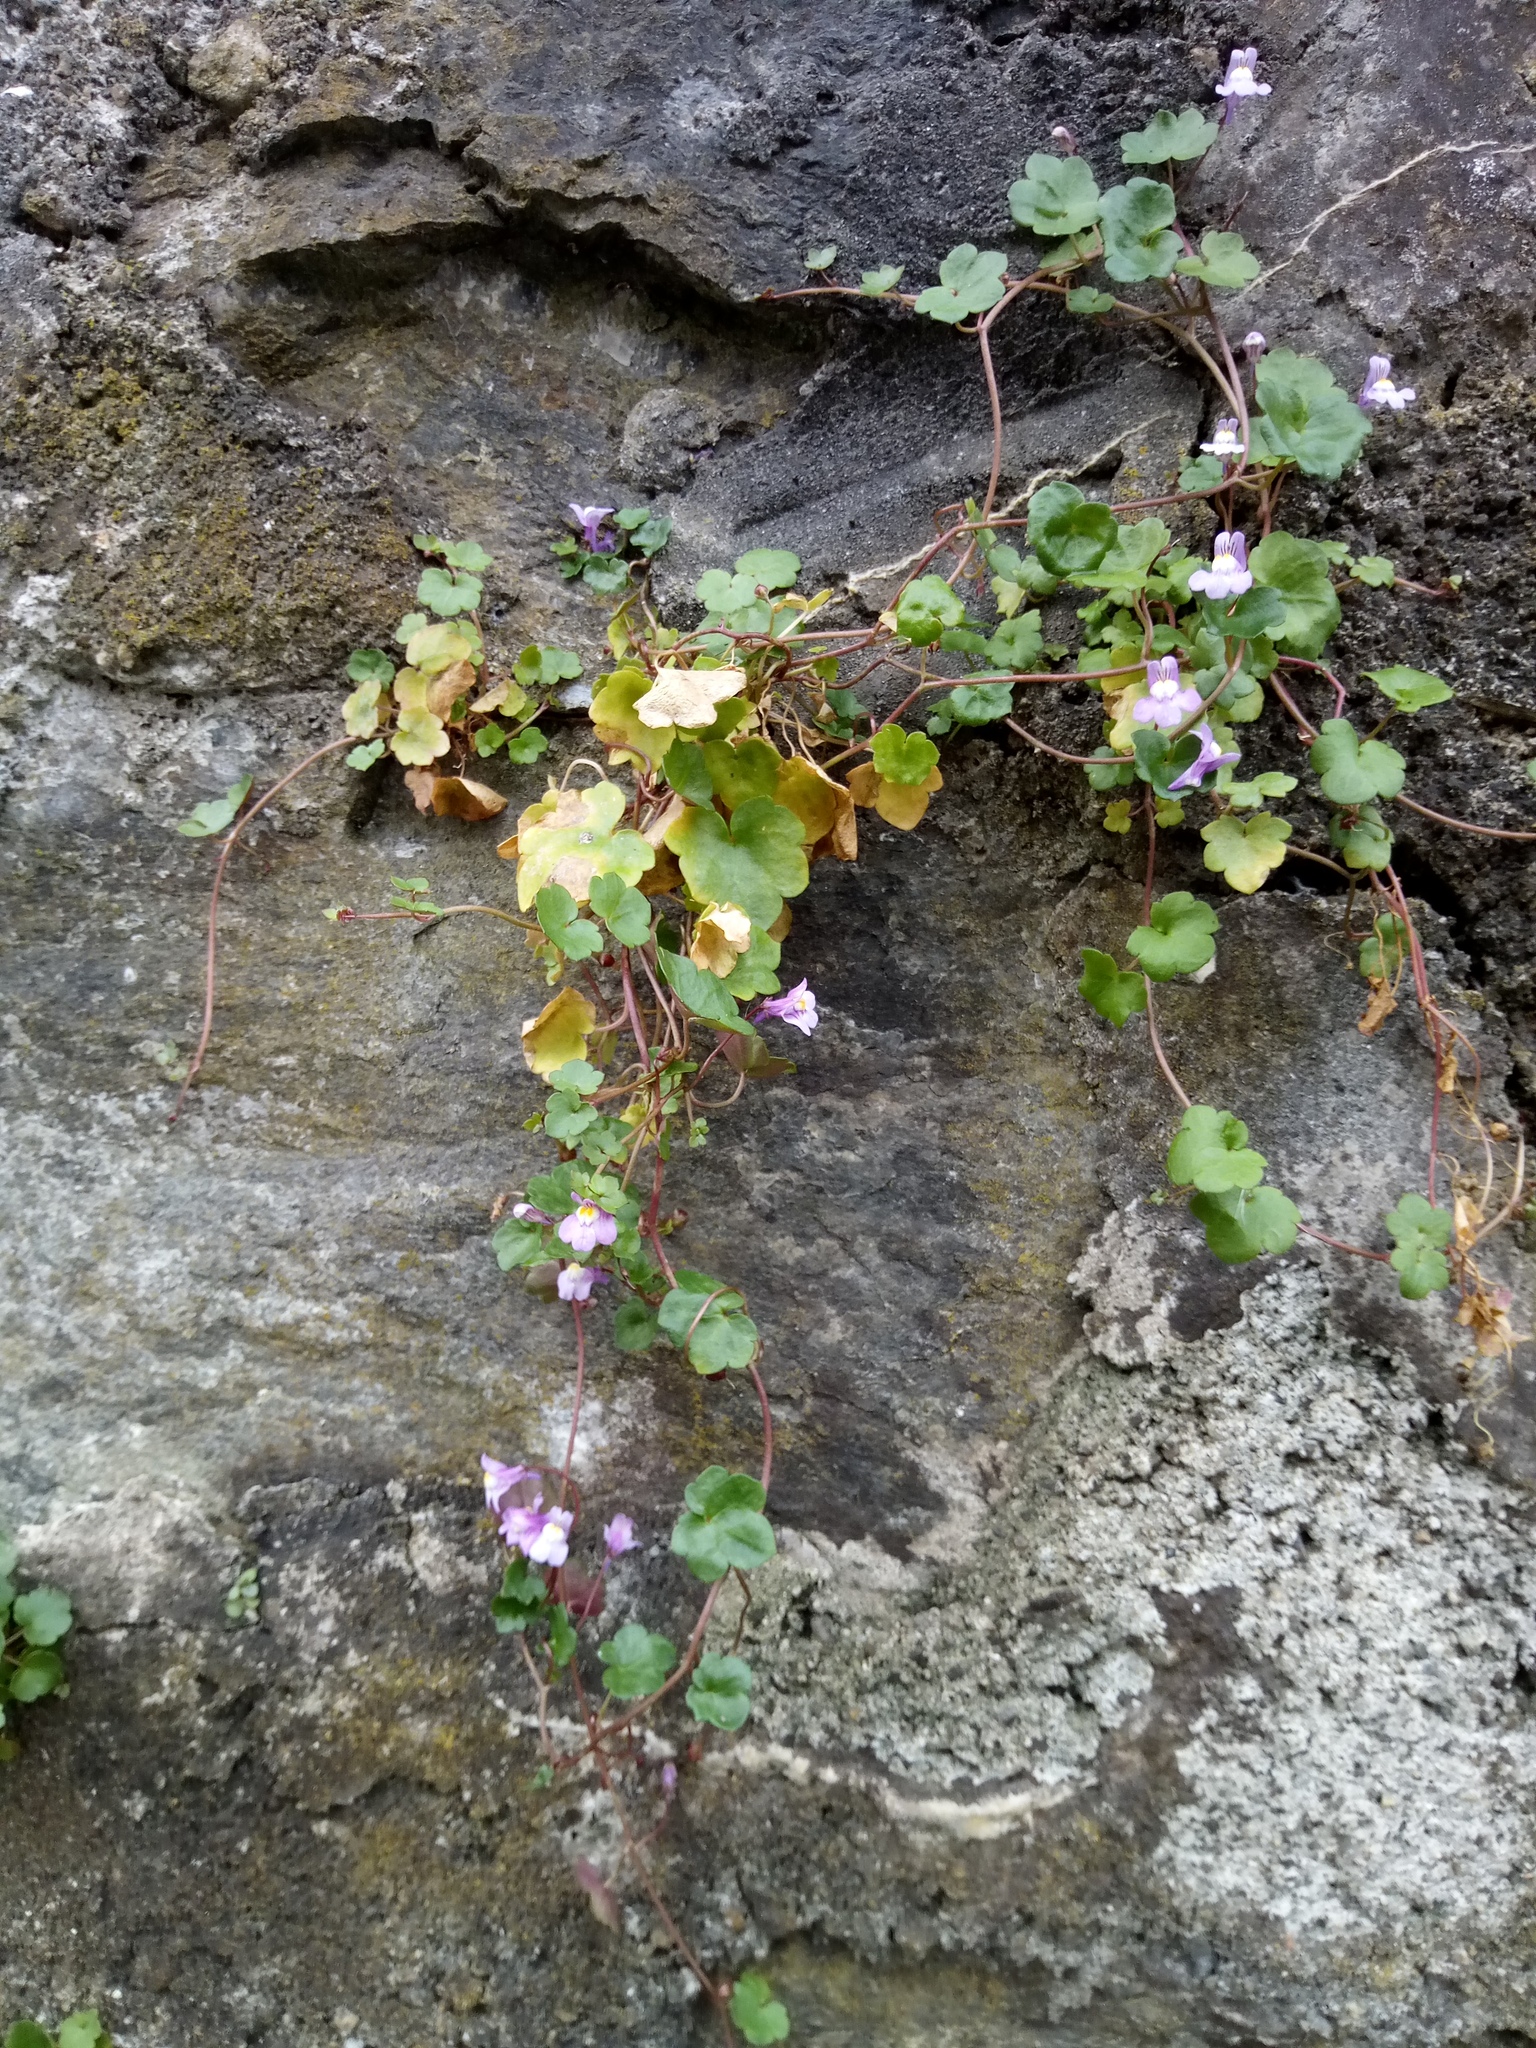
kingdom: Plantae
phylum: Tracheophyta
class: Magnoliopsida
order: Lamiales
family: Plantaginaceae
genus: Cymbalaria
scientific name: Cymbalaria muralis
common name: Ivy-leaved toadflax
